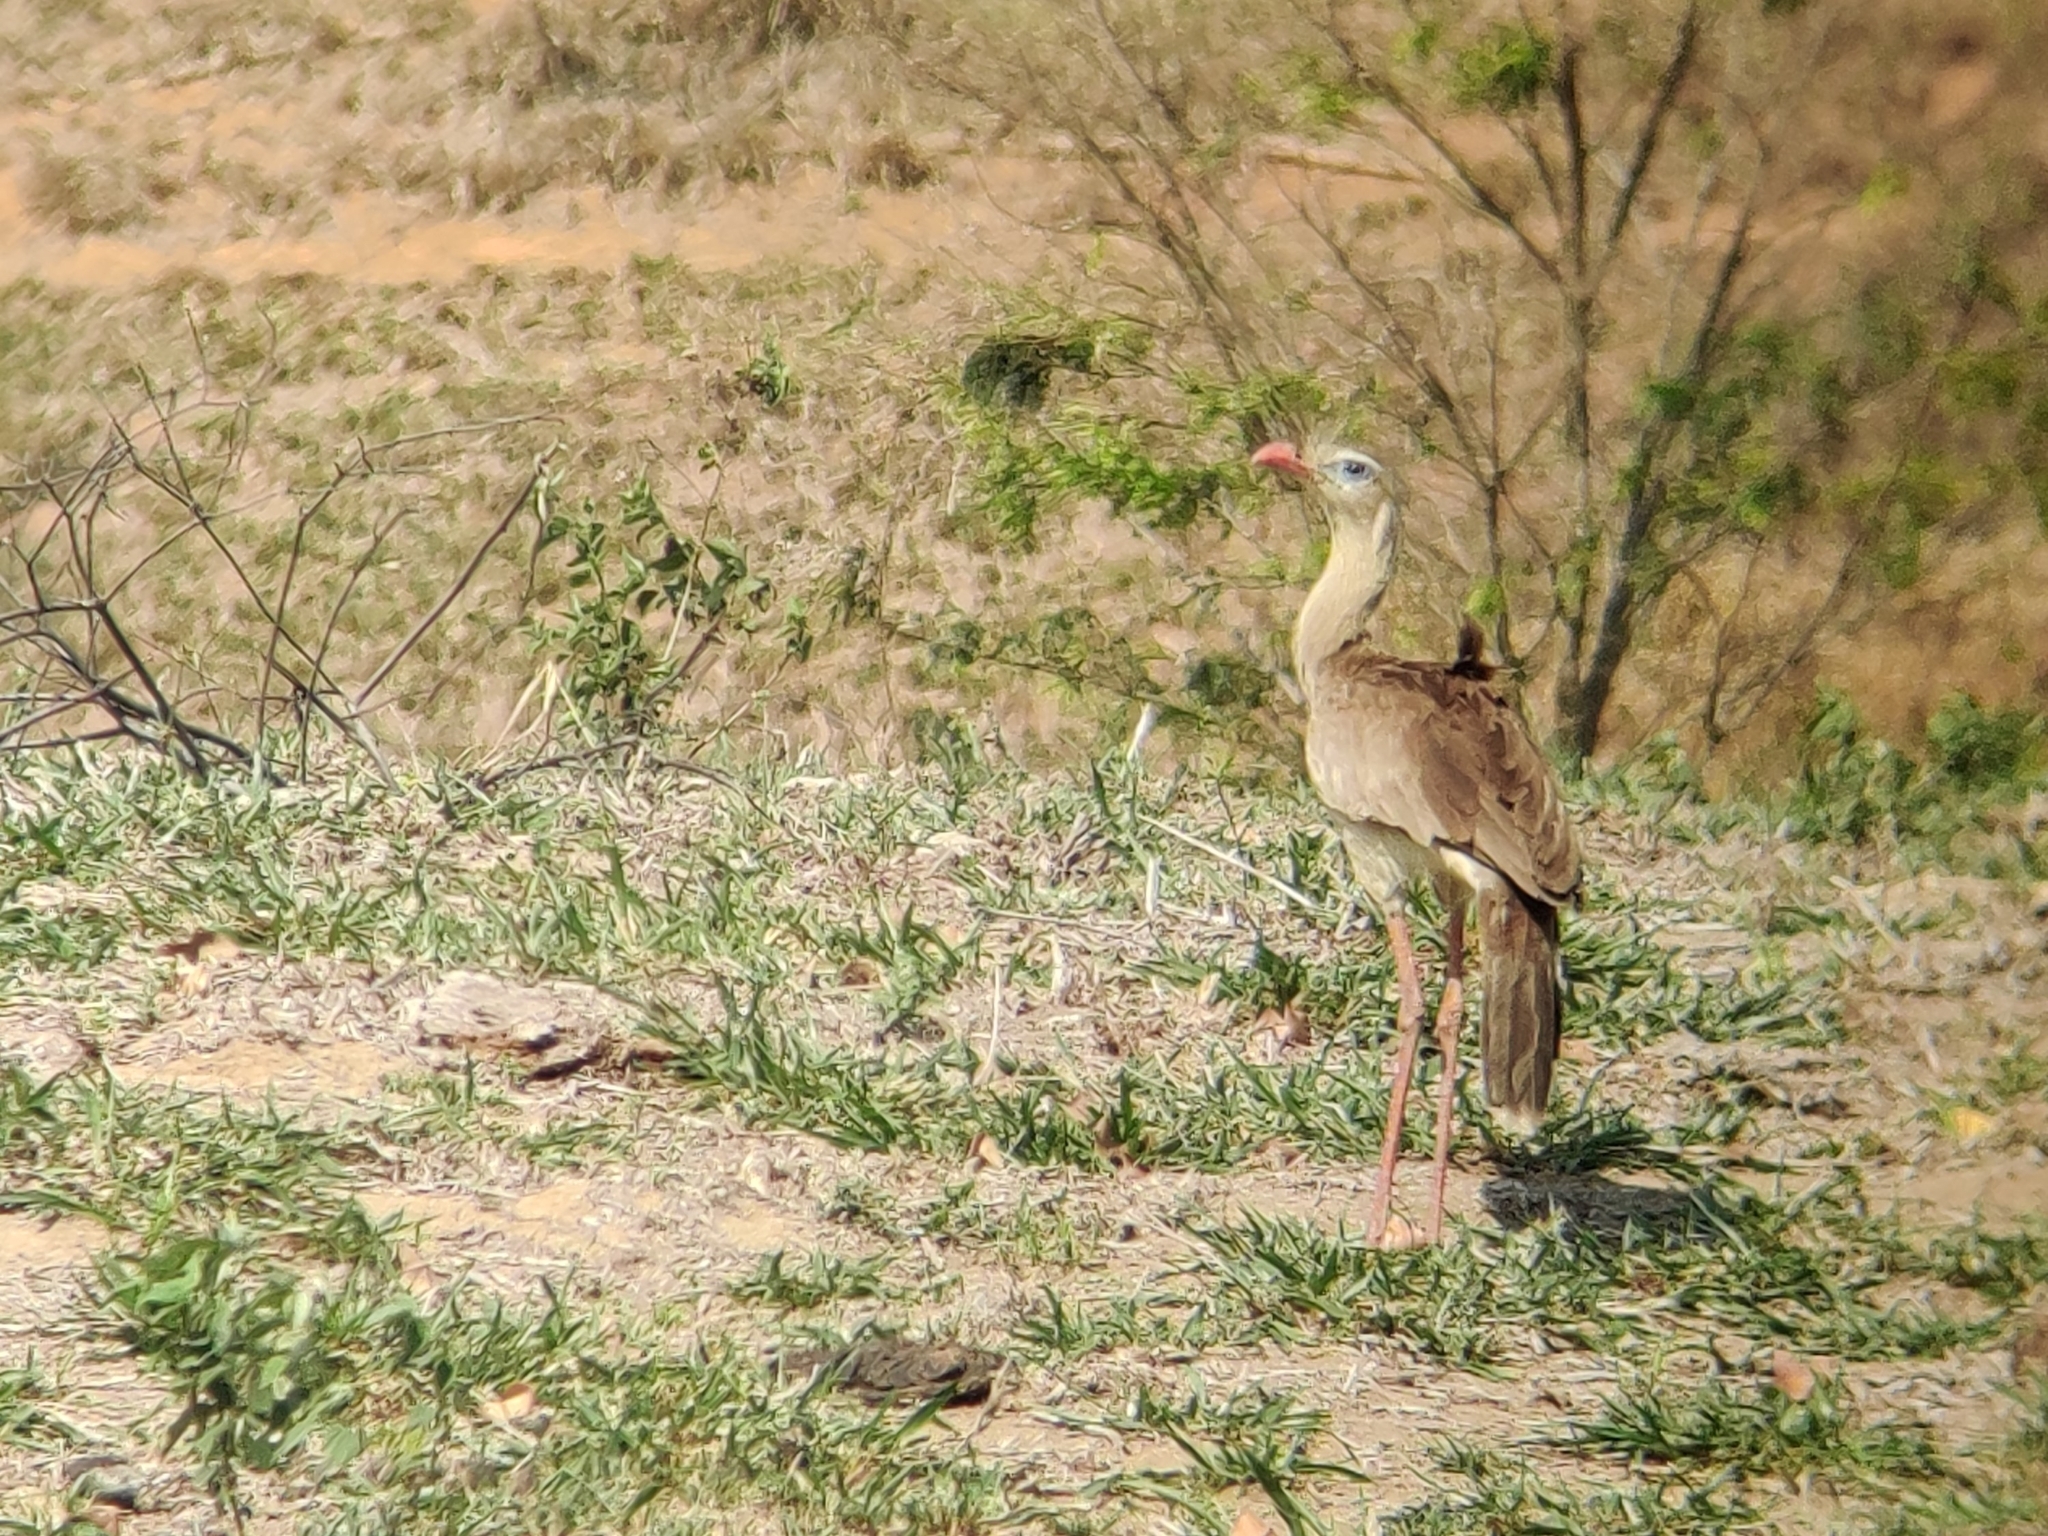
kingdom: Animalia
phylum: Chordata
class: Aves
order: Cariamiformes
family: Cariamidae
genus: Cariama
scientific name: Cariama cristata
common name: Red-legged seriema
